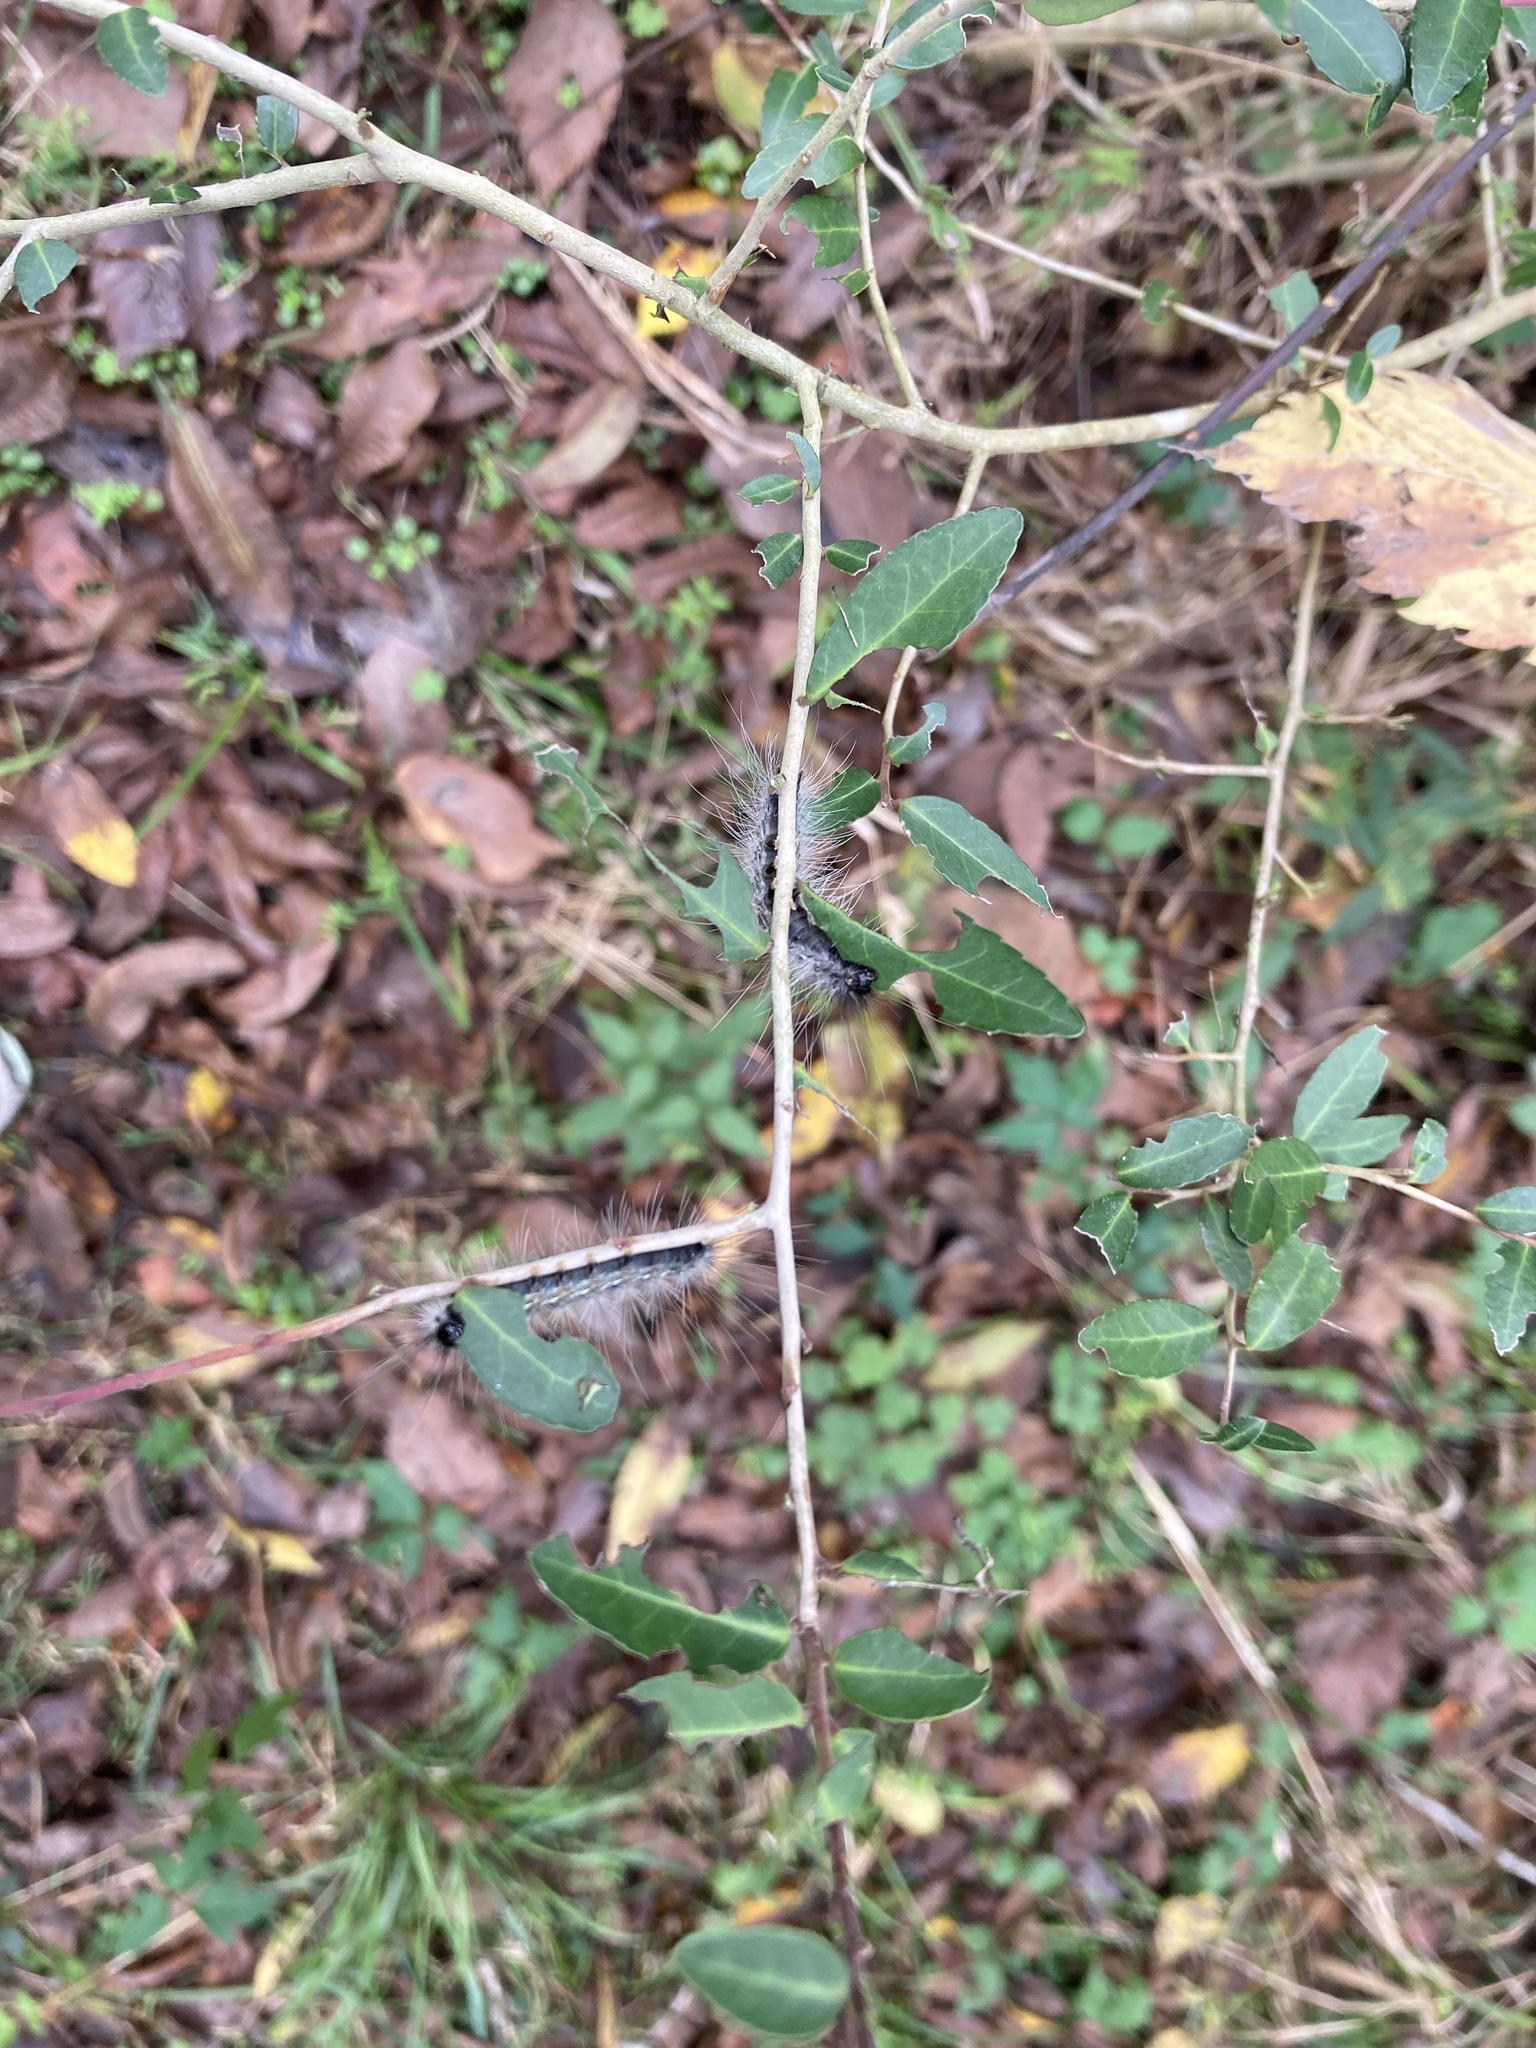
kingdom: Animalia
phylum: Arthropoda
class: Insecta
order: Lepidoptera
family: Erebidae
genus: Hyphantria
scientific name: Hyphantria cunea
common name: American white moth
